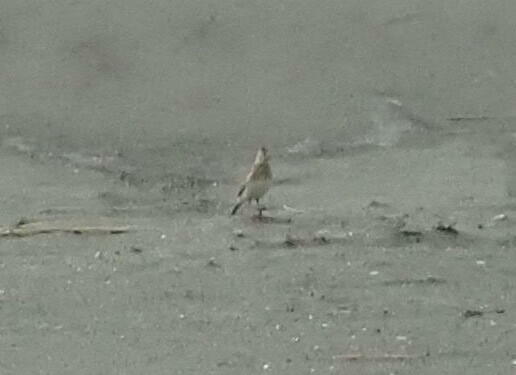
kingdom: Animalia
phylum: Chordata
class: Aves
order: Passeriformes
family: Alaudidae
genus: Alauda
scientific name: Alauda arvensis
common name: Eurasian skylark
